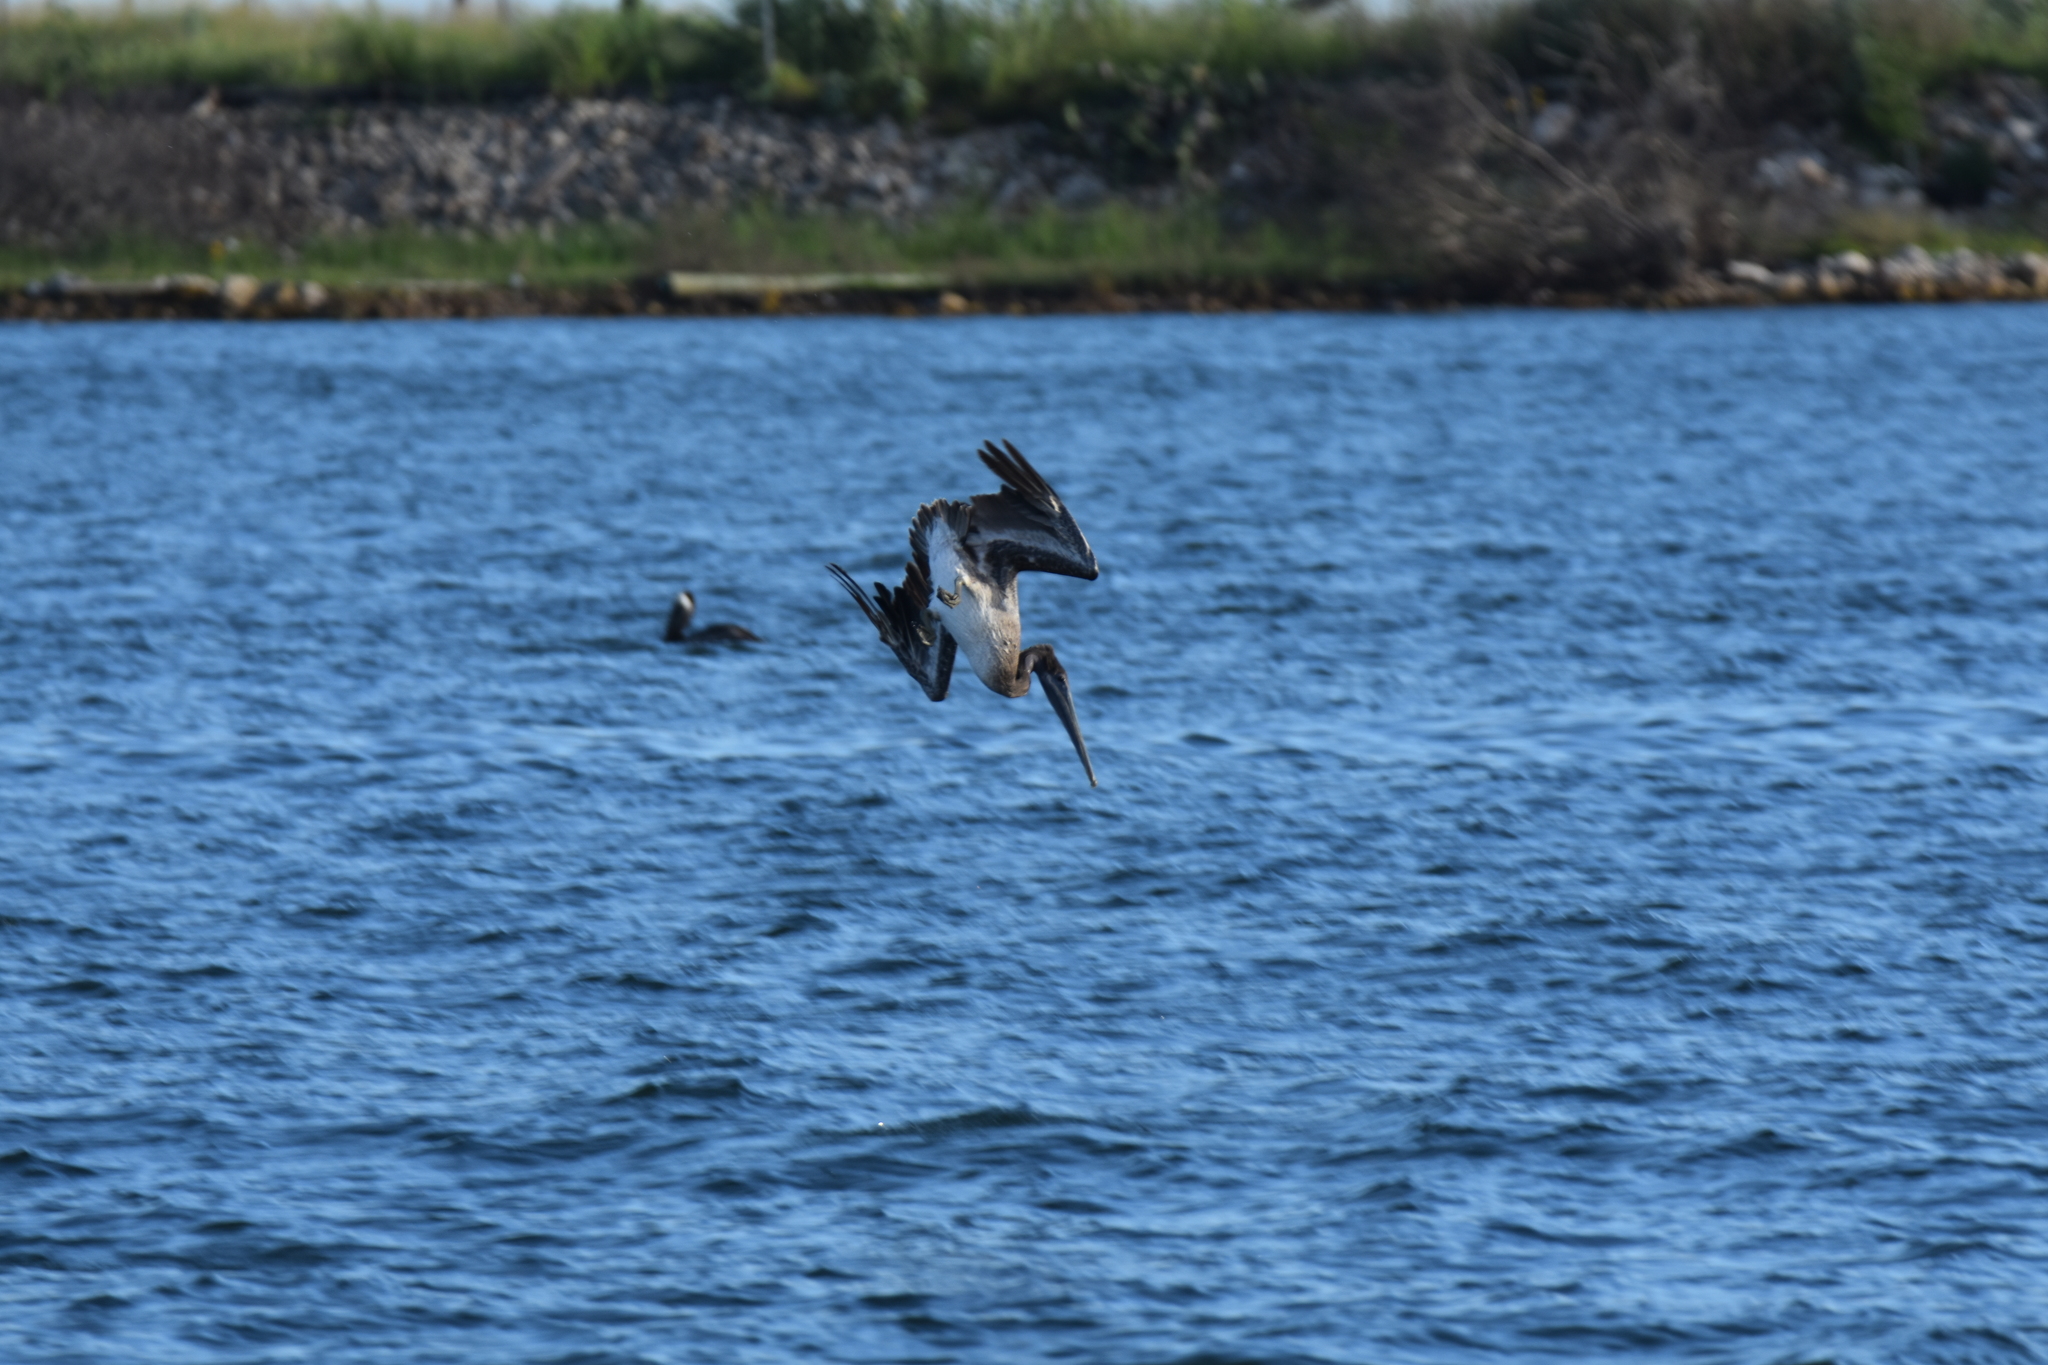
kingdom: Animalia
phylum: Chordata
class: Aves
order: Pelecaniformes
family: Pelecanidae
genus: Pelecanus
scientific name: Pelecanus occidentalis
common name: Brown pelican
